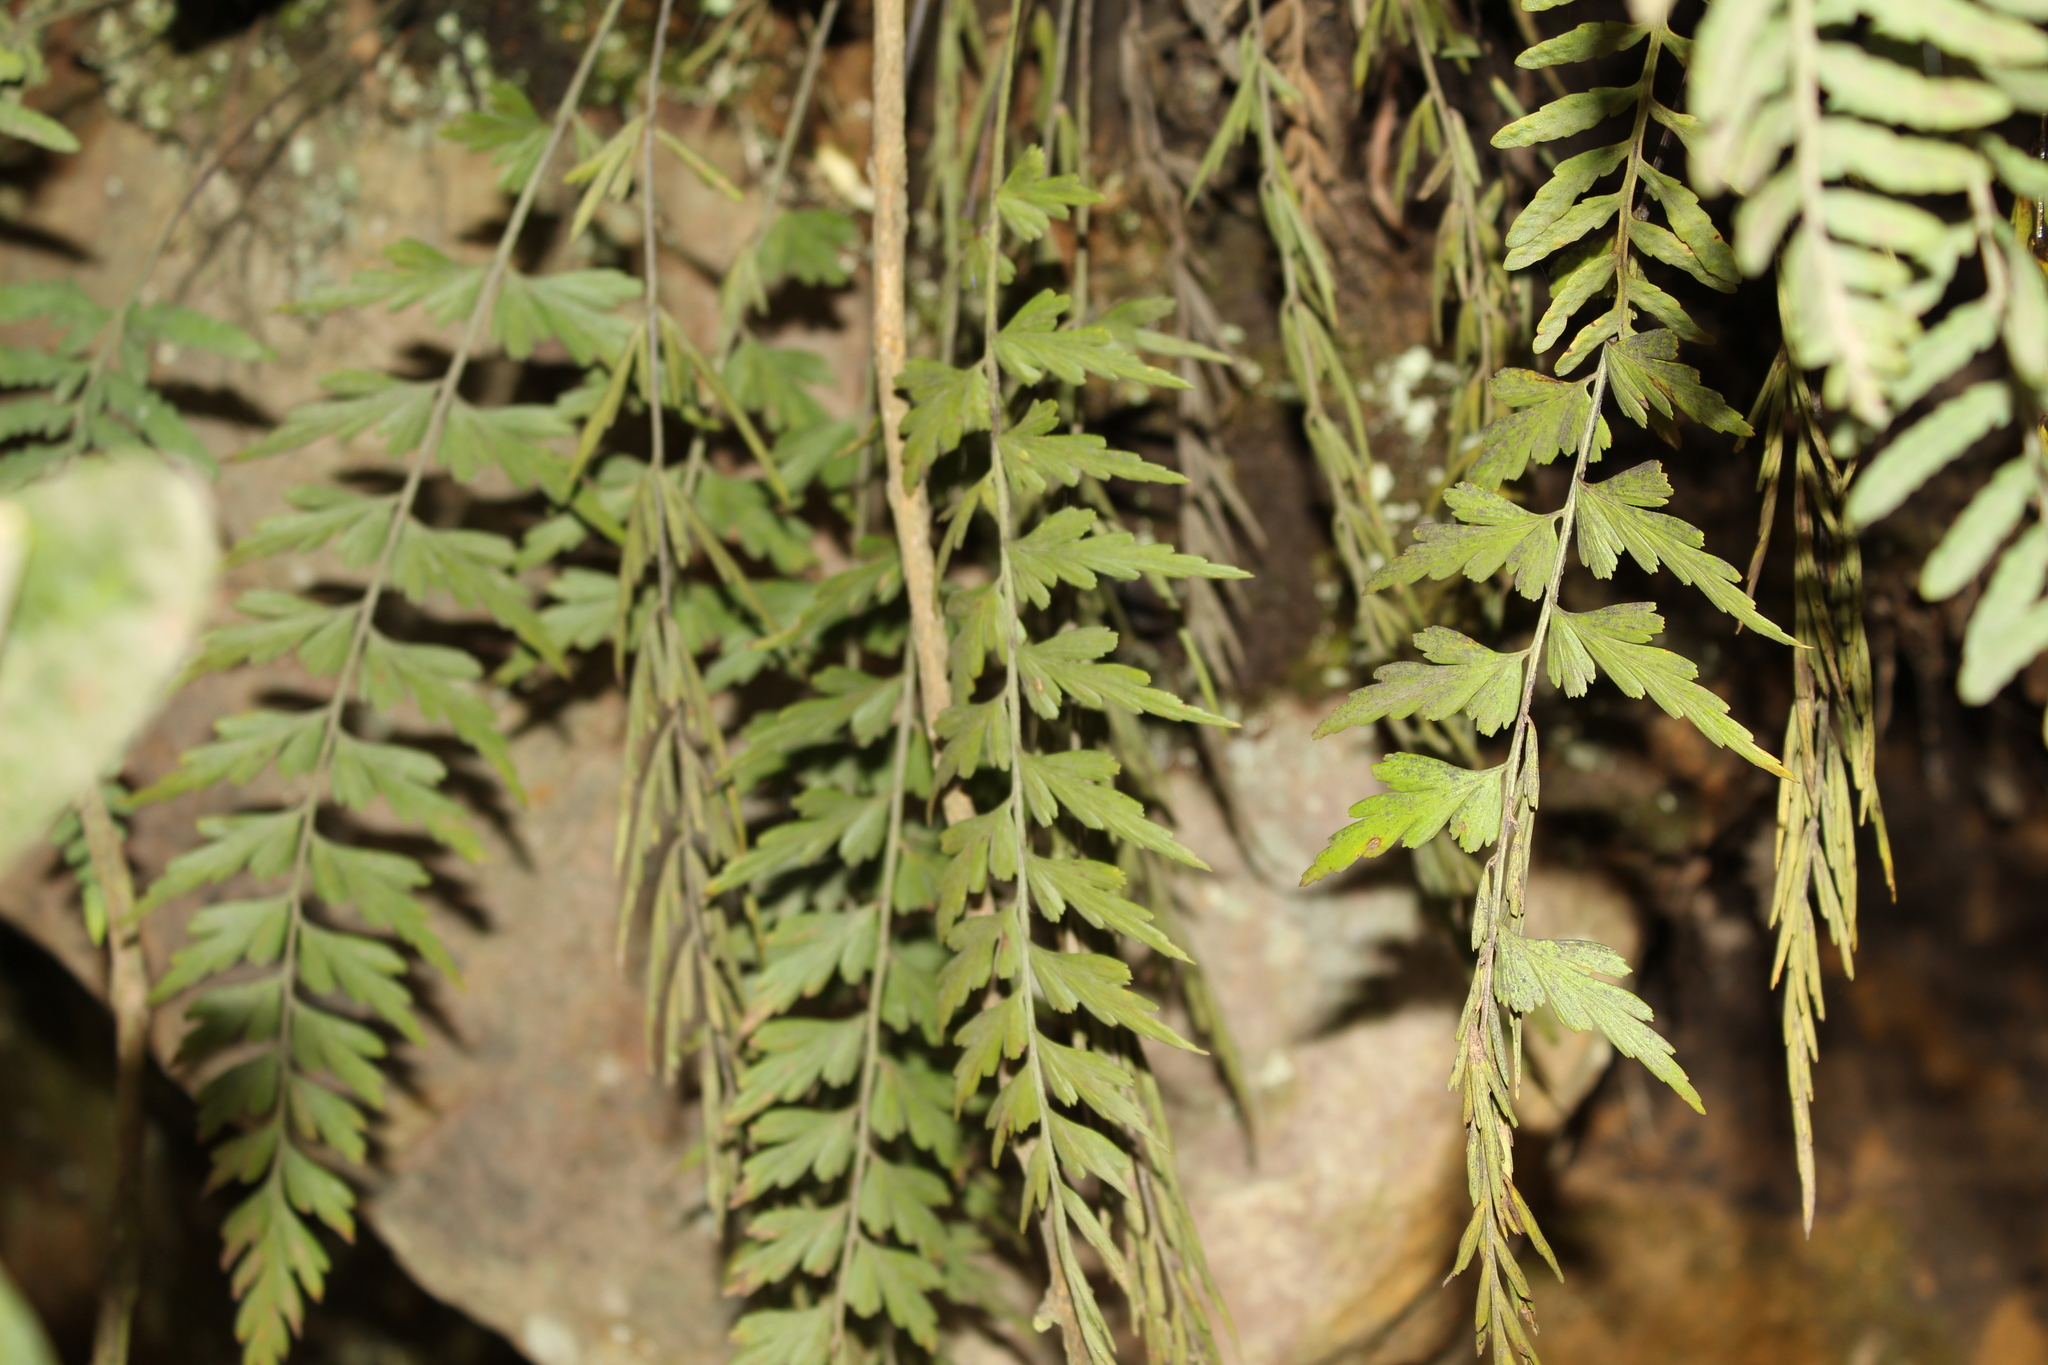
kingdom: Plantae
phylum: Tracheophyta
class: Polypodiopsida
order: Polypodiales
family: Aspleniaceae
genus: Asplenium
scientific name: Asplenium praemorsum
